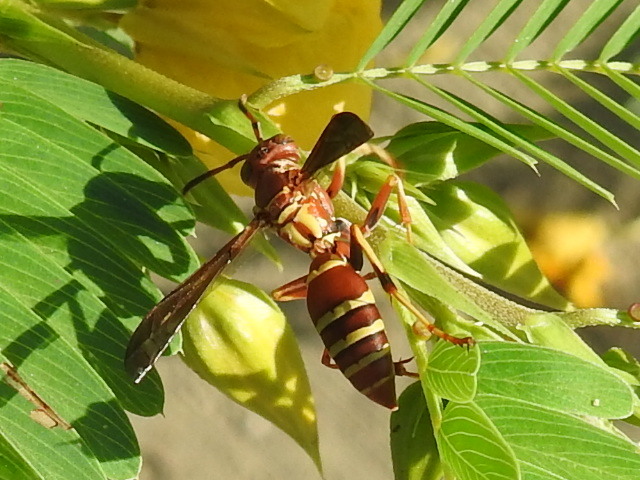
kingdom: Animalia
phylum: Arthropoda
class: Insecta
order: Hymenoptera
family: Eumenidae
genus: Polistes
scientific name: Polistes bellicosus
